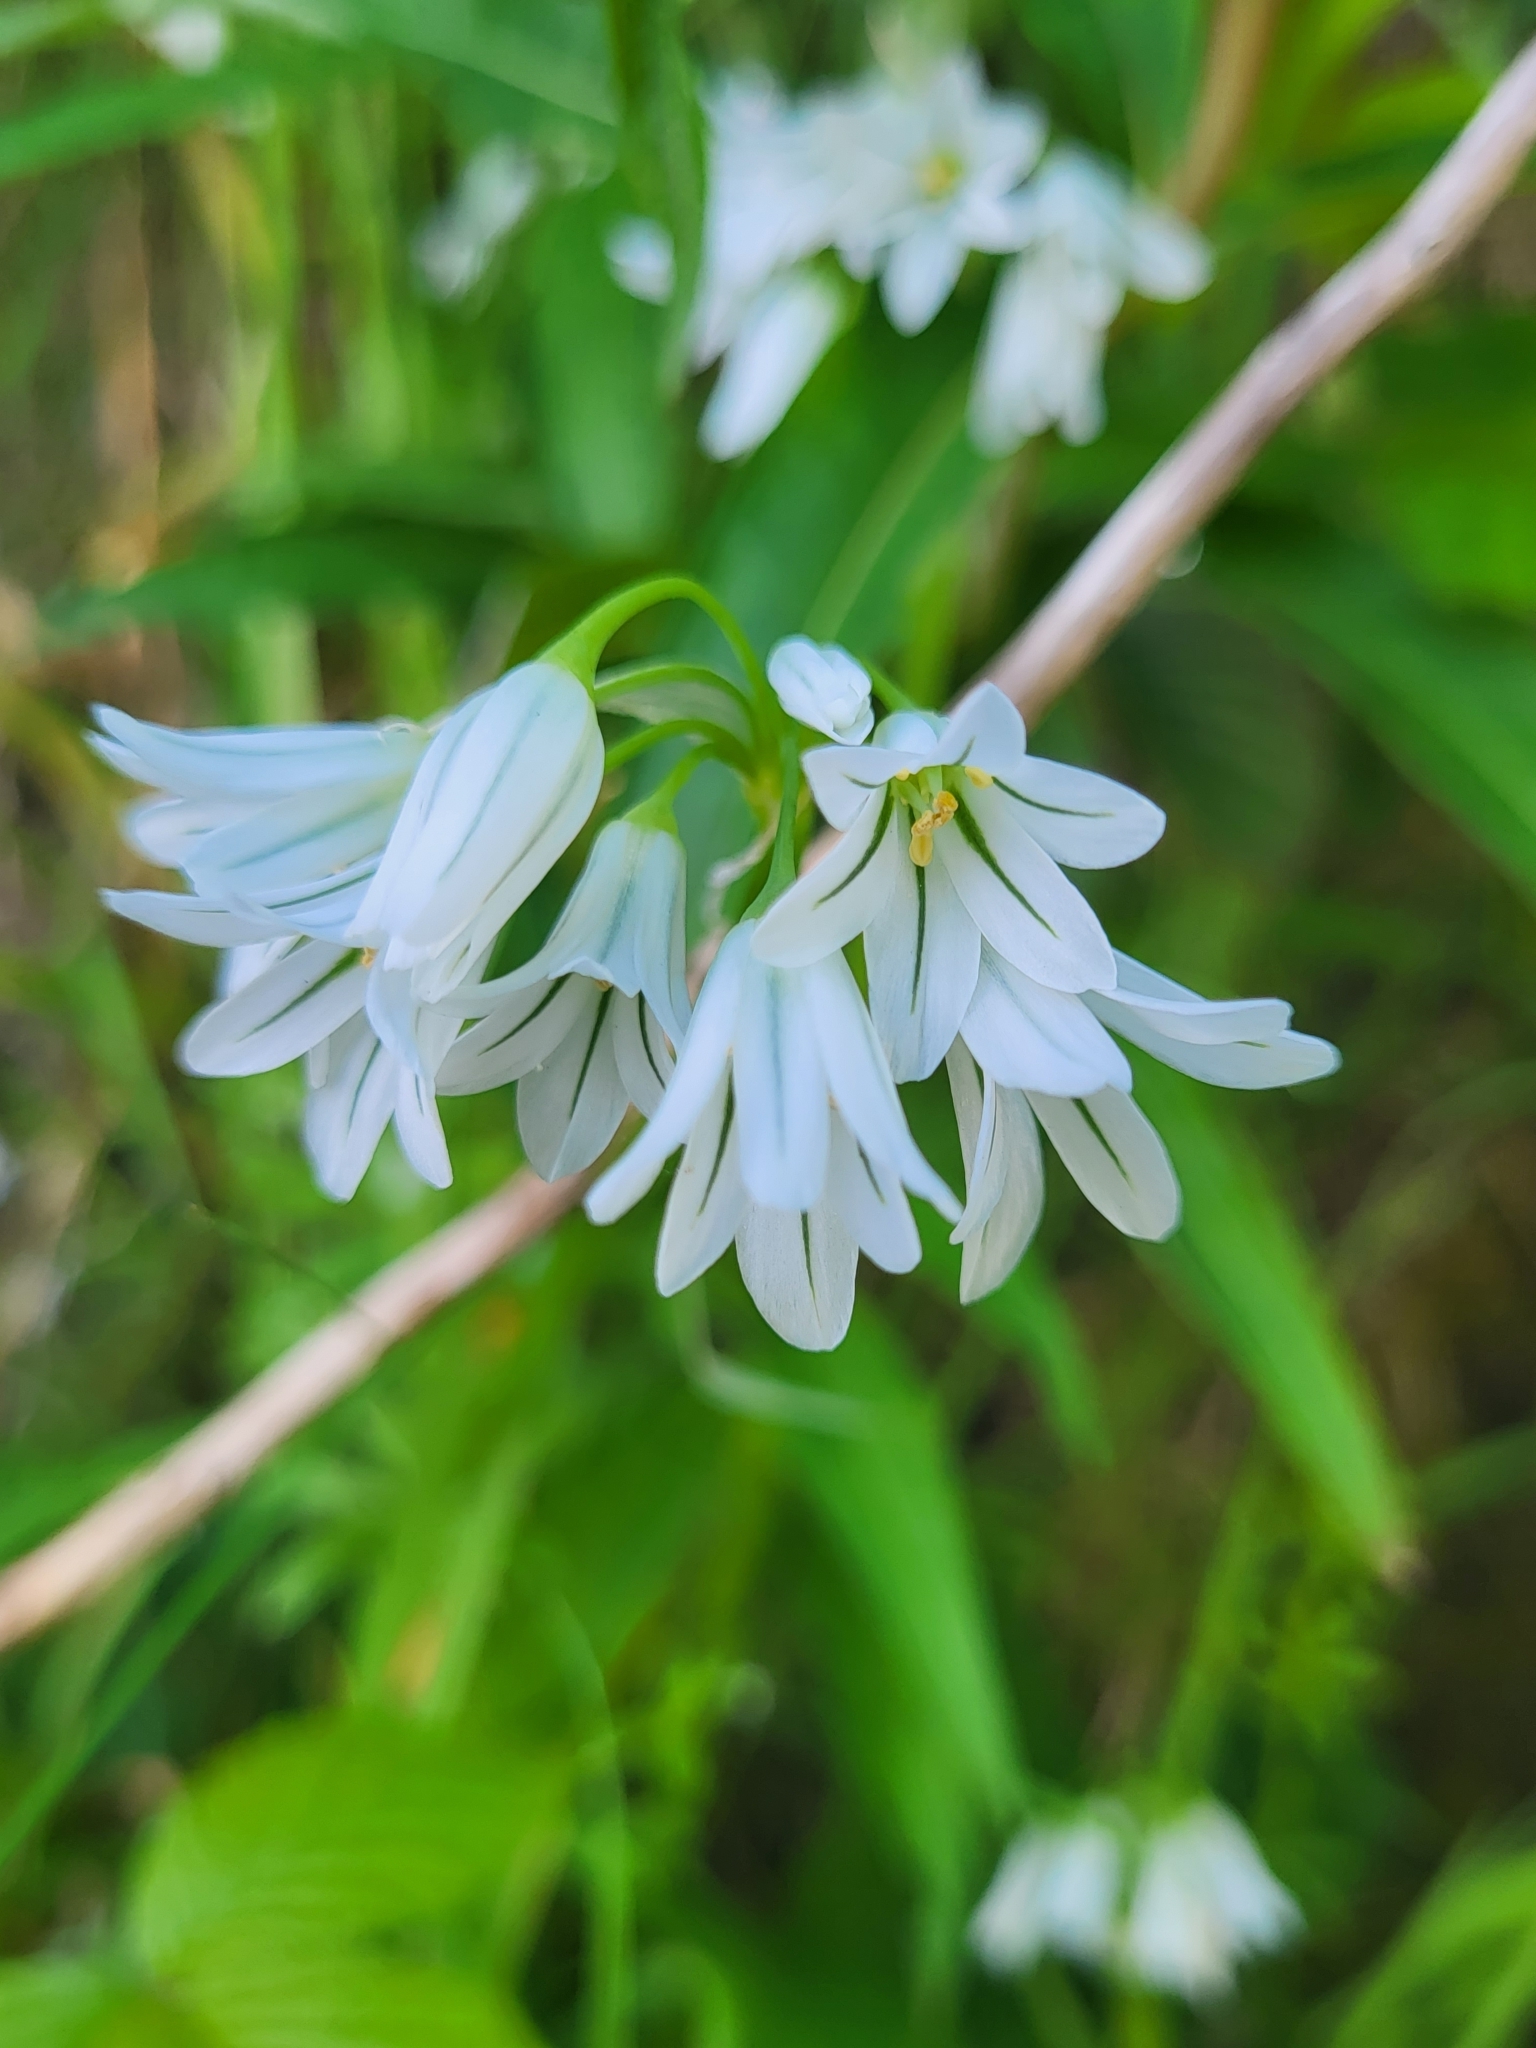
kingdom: Plantae
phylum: Tracheophyta
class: Liliopsida
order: Asparagales
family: Amaryllidaceae
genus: Allium
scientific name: Allium triquetrum
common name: Three-cornered garlic
